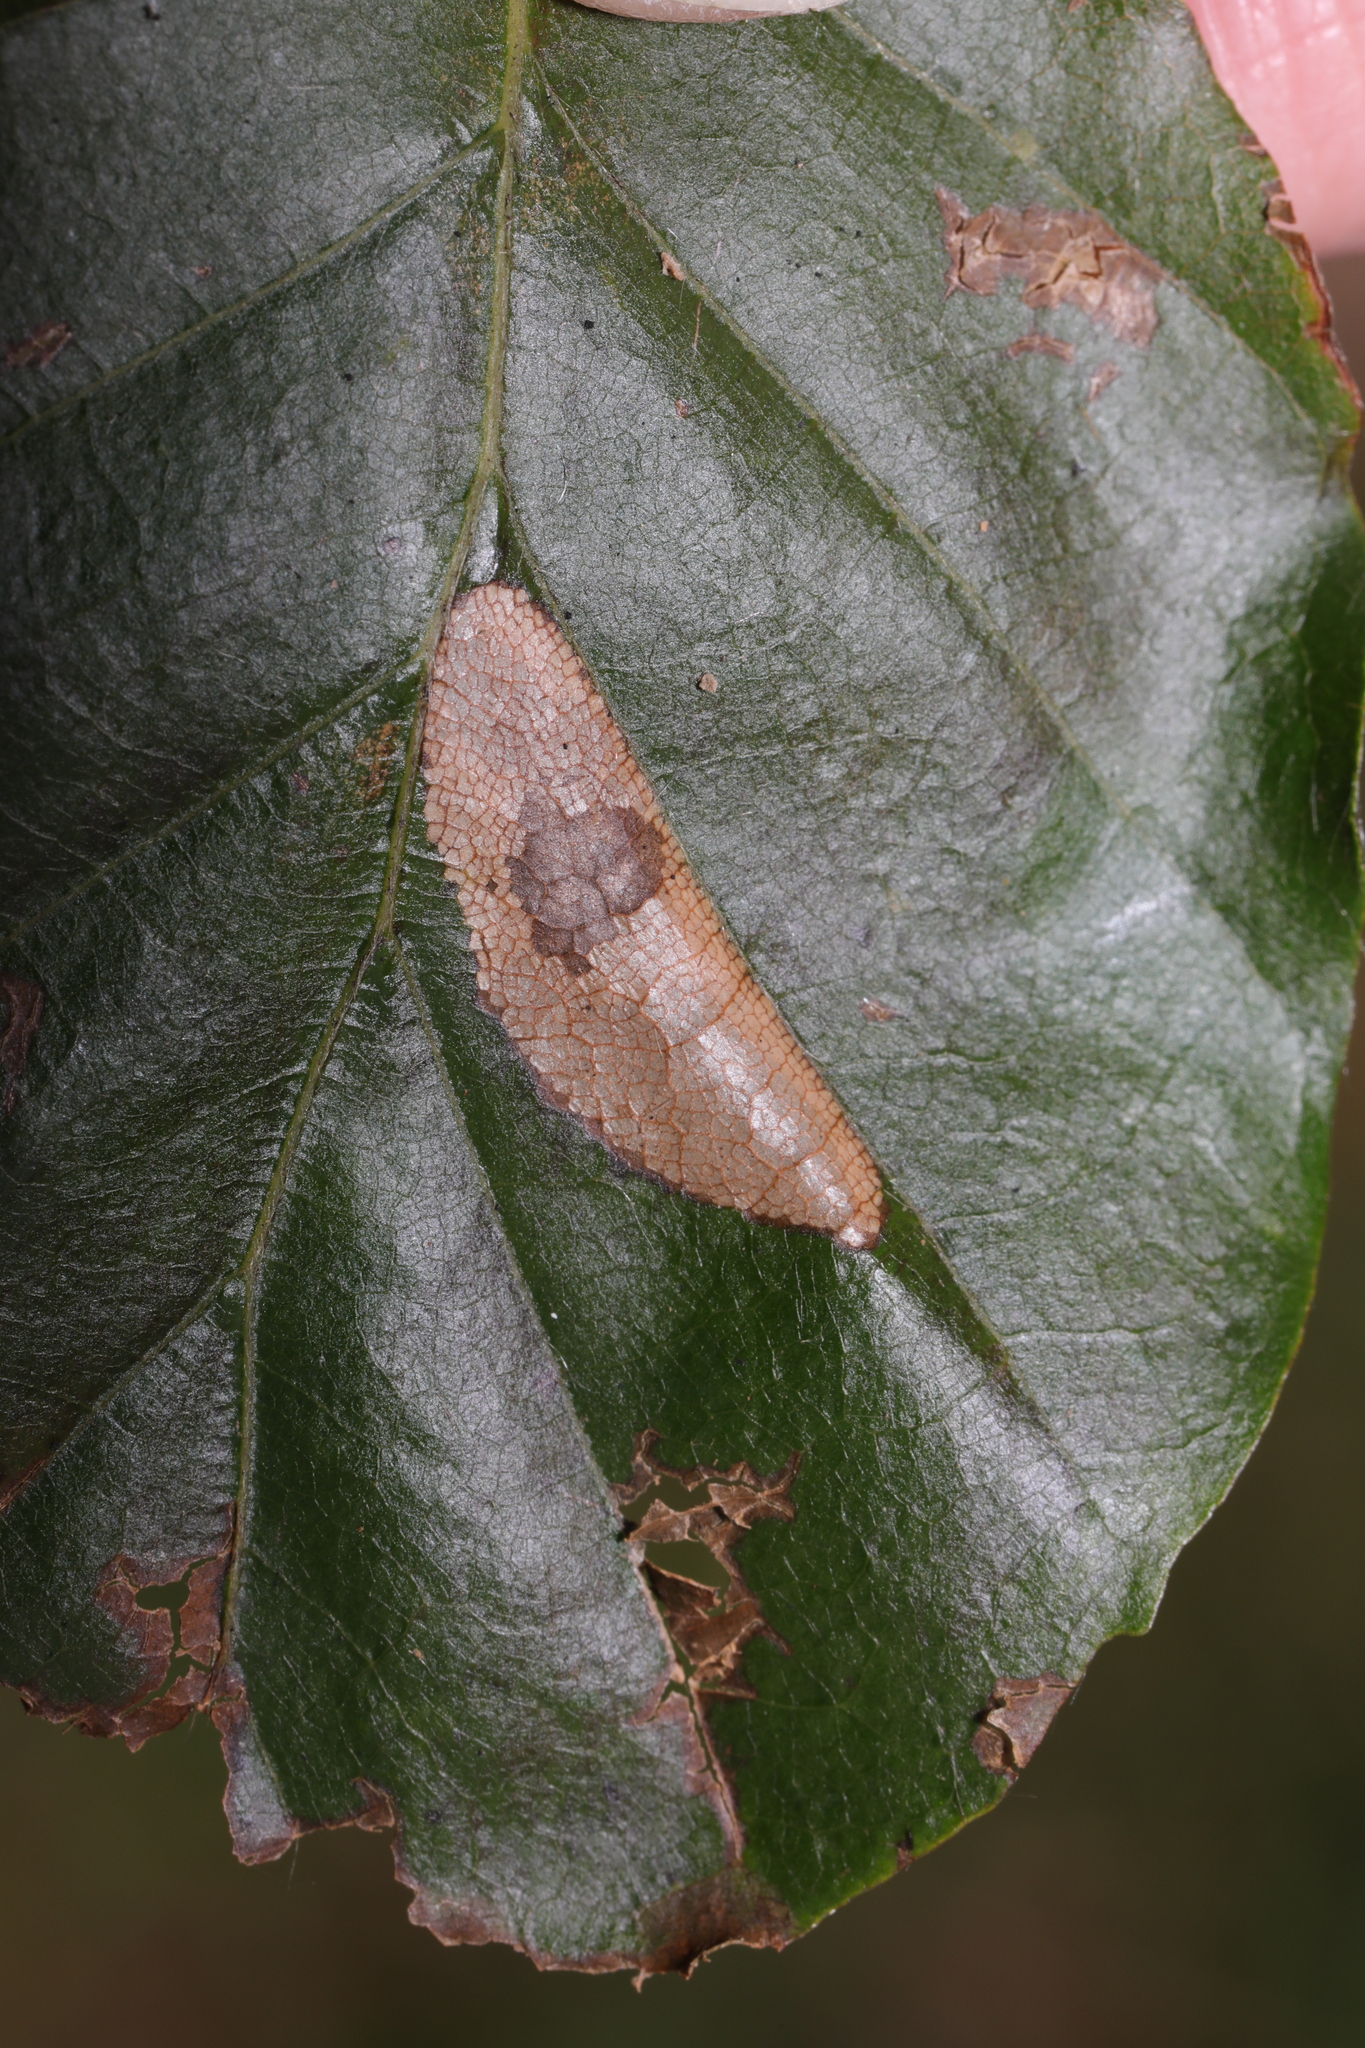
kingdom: Animalia
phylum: Arthropoda
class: Insecta
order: Lepidoptera
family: Gracillariidae
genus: Phyllonorycter
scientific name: Phyllonorycter maestingella
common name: Beech midget
